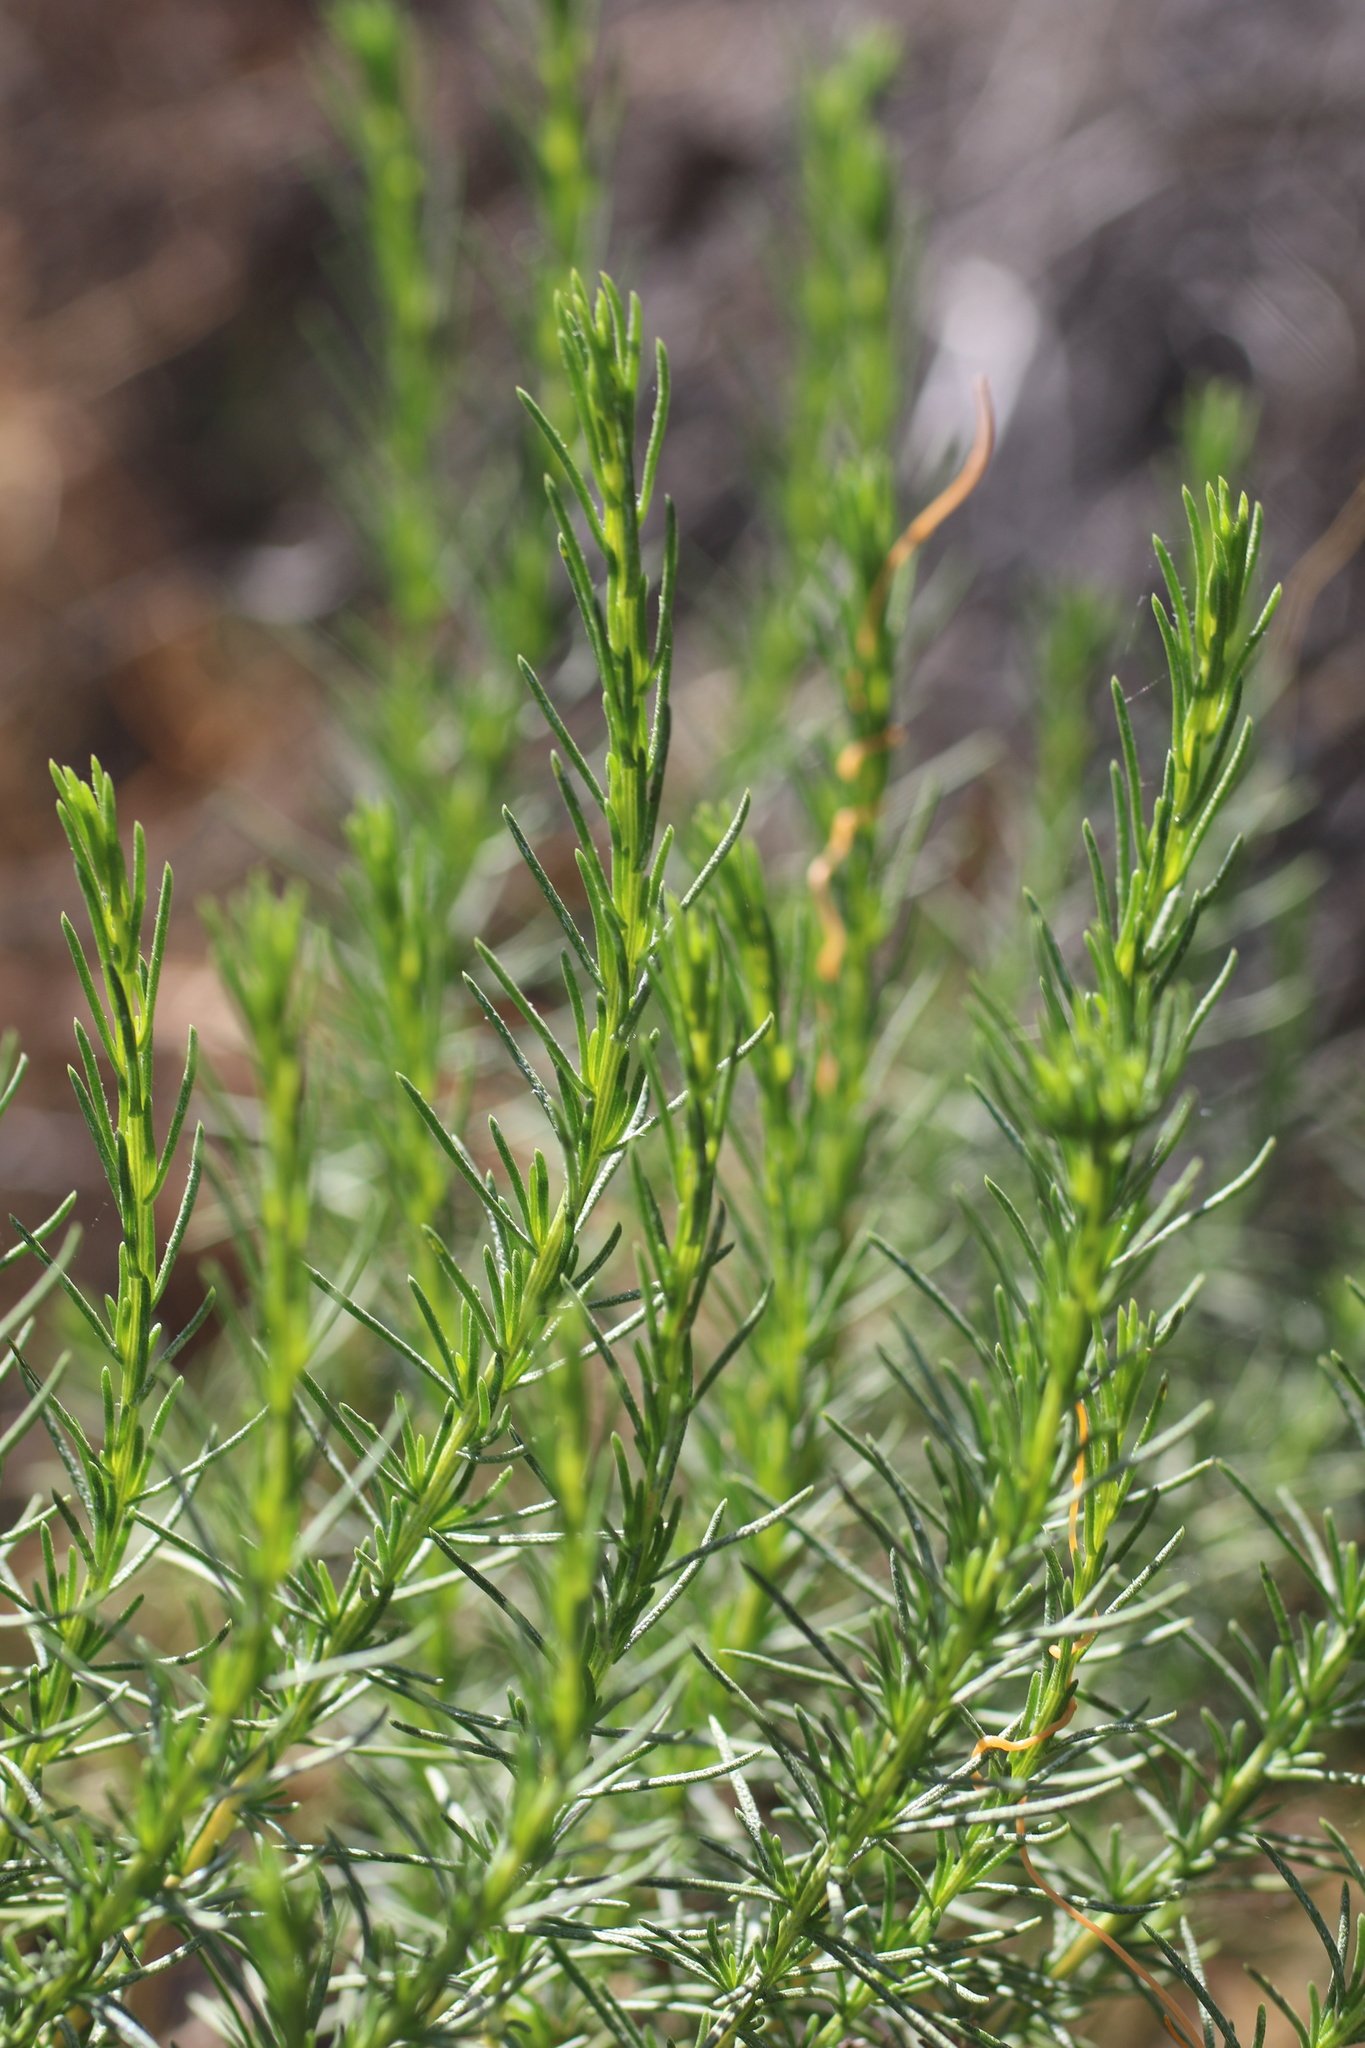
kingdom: Plantae
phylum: Tracheophyta
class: Magnoliopsida
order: Asterales
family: Asteraceae
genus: Ericameria
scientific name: Ericameria pinifolia
